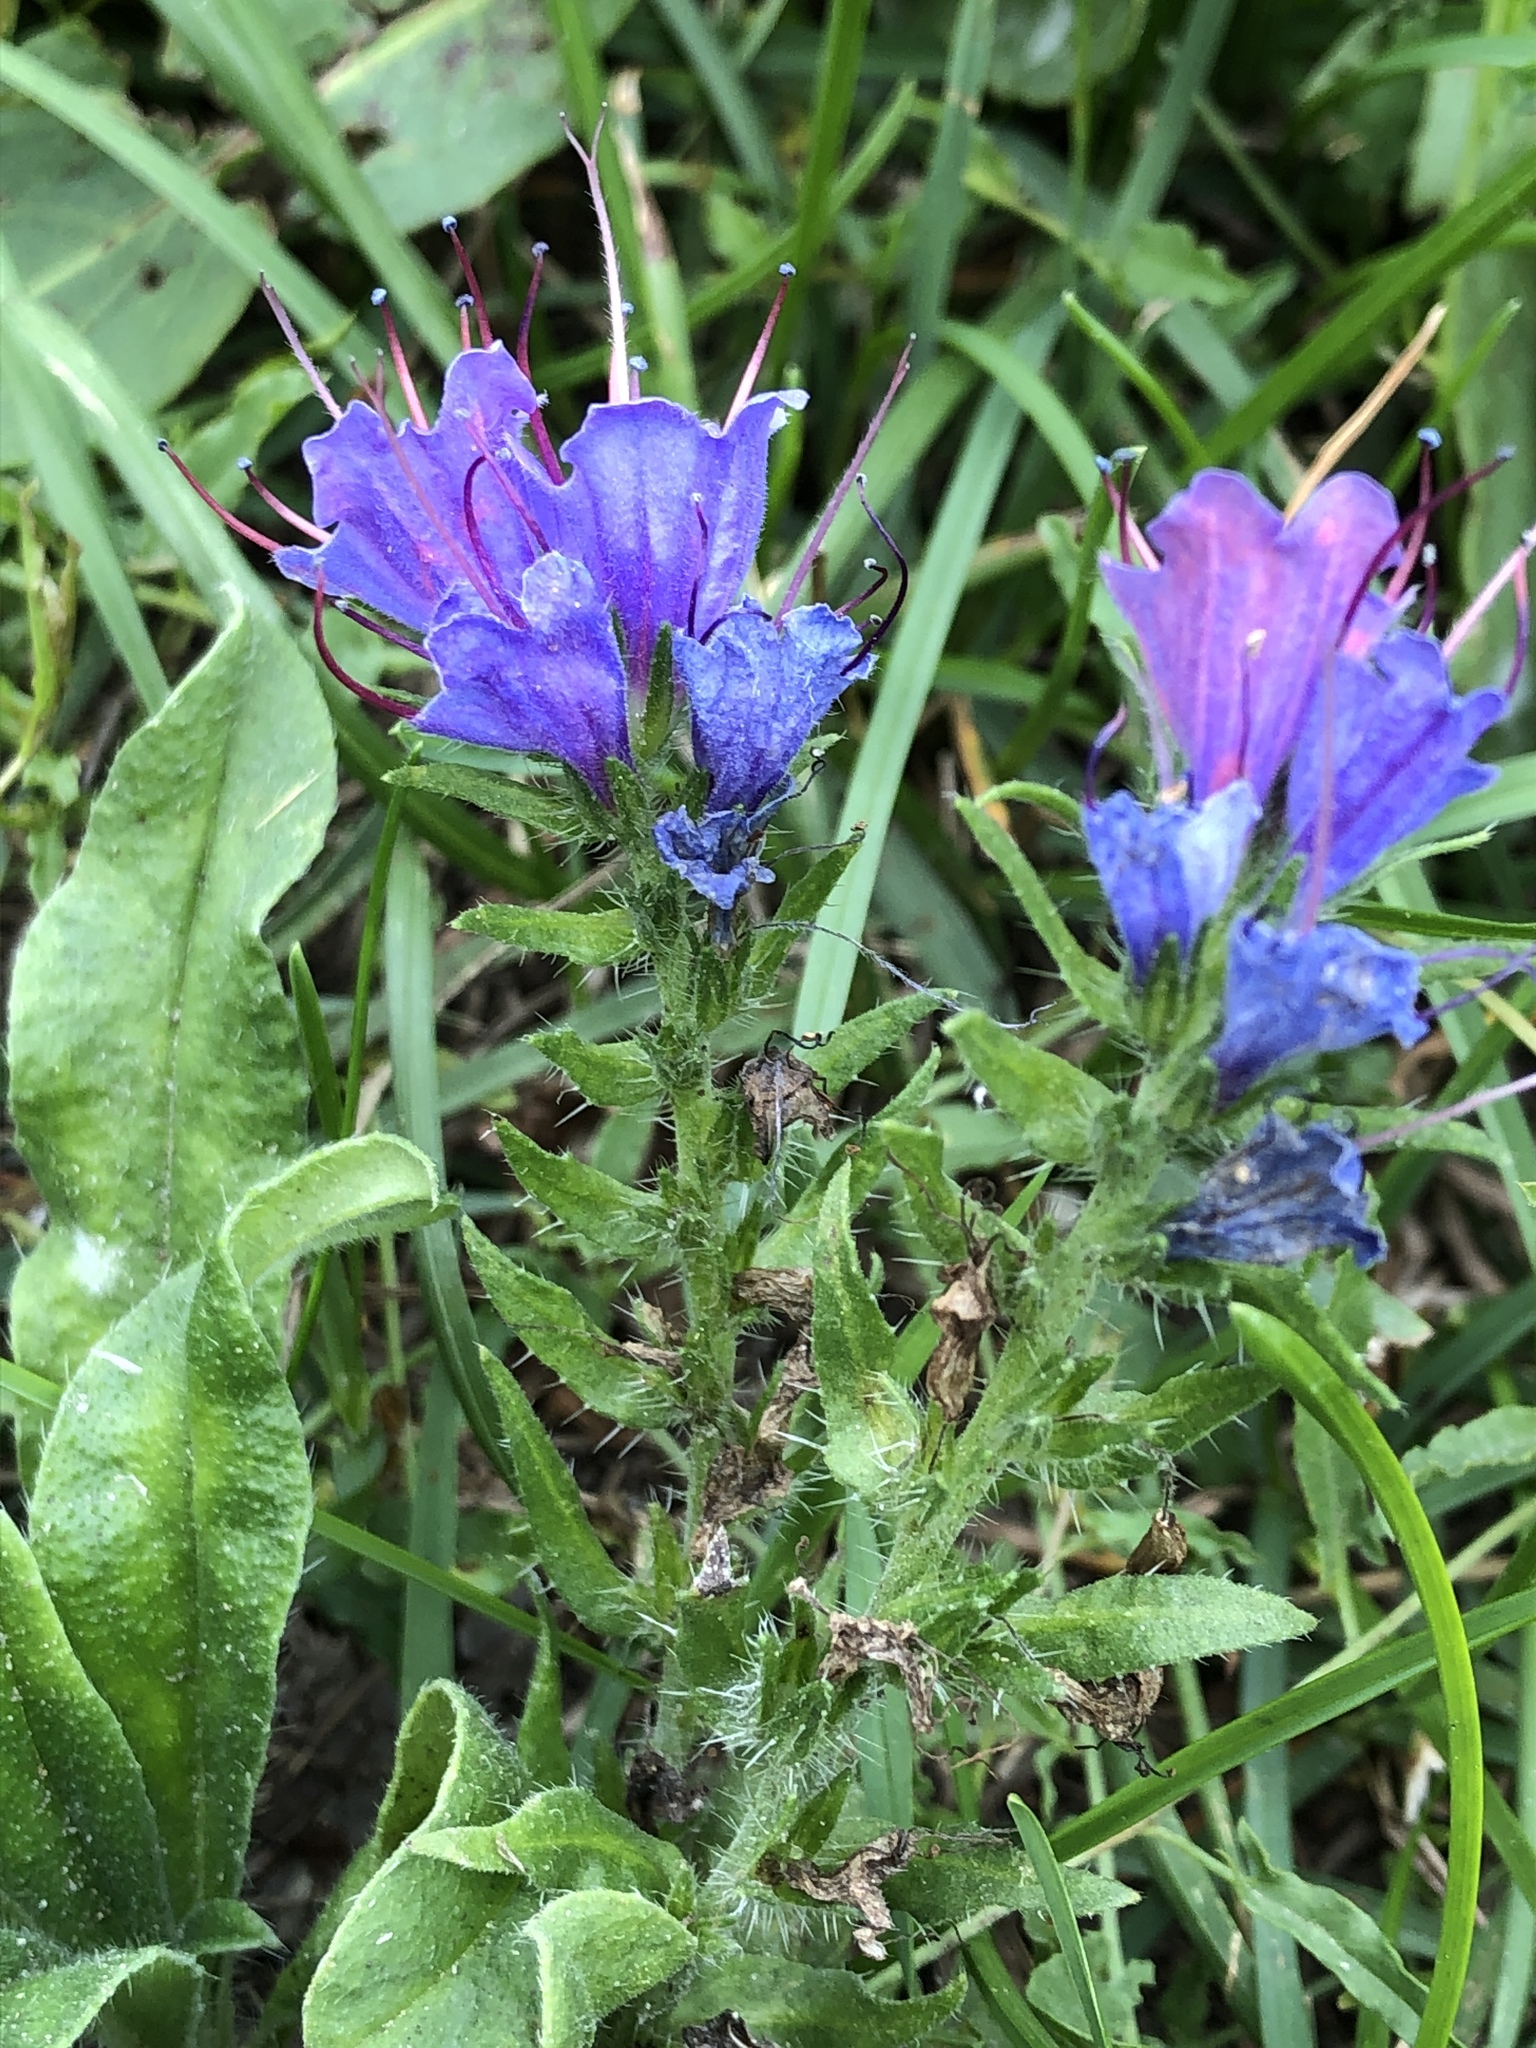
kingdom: Plantae
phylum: Tracheophyta
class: Magnoliopsida
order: Boraginales
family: Boraginaceae
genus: Echium
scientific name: Echium vulgare
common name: Common viper's bugloss
